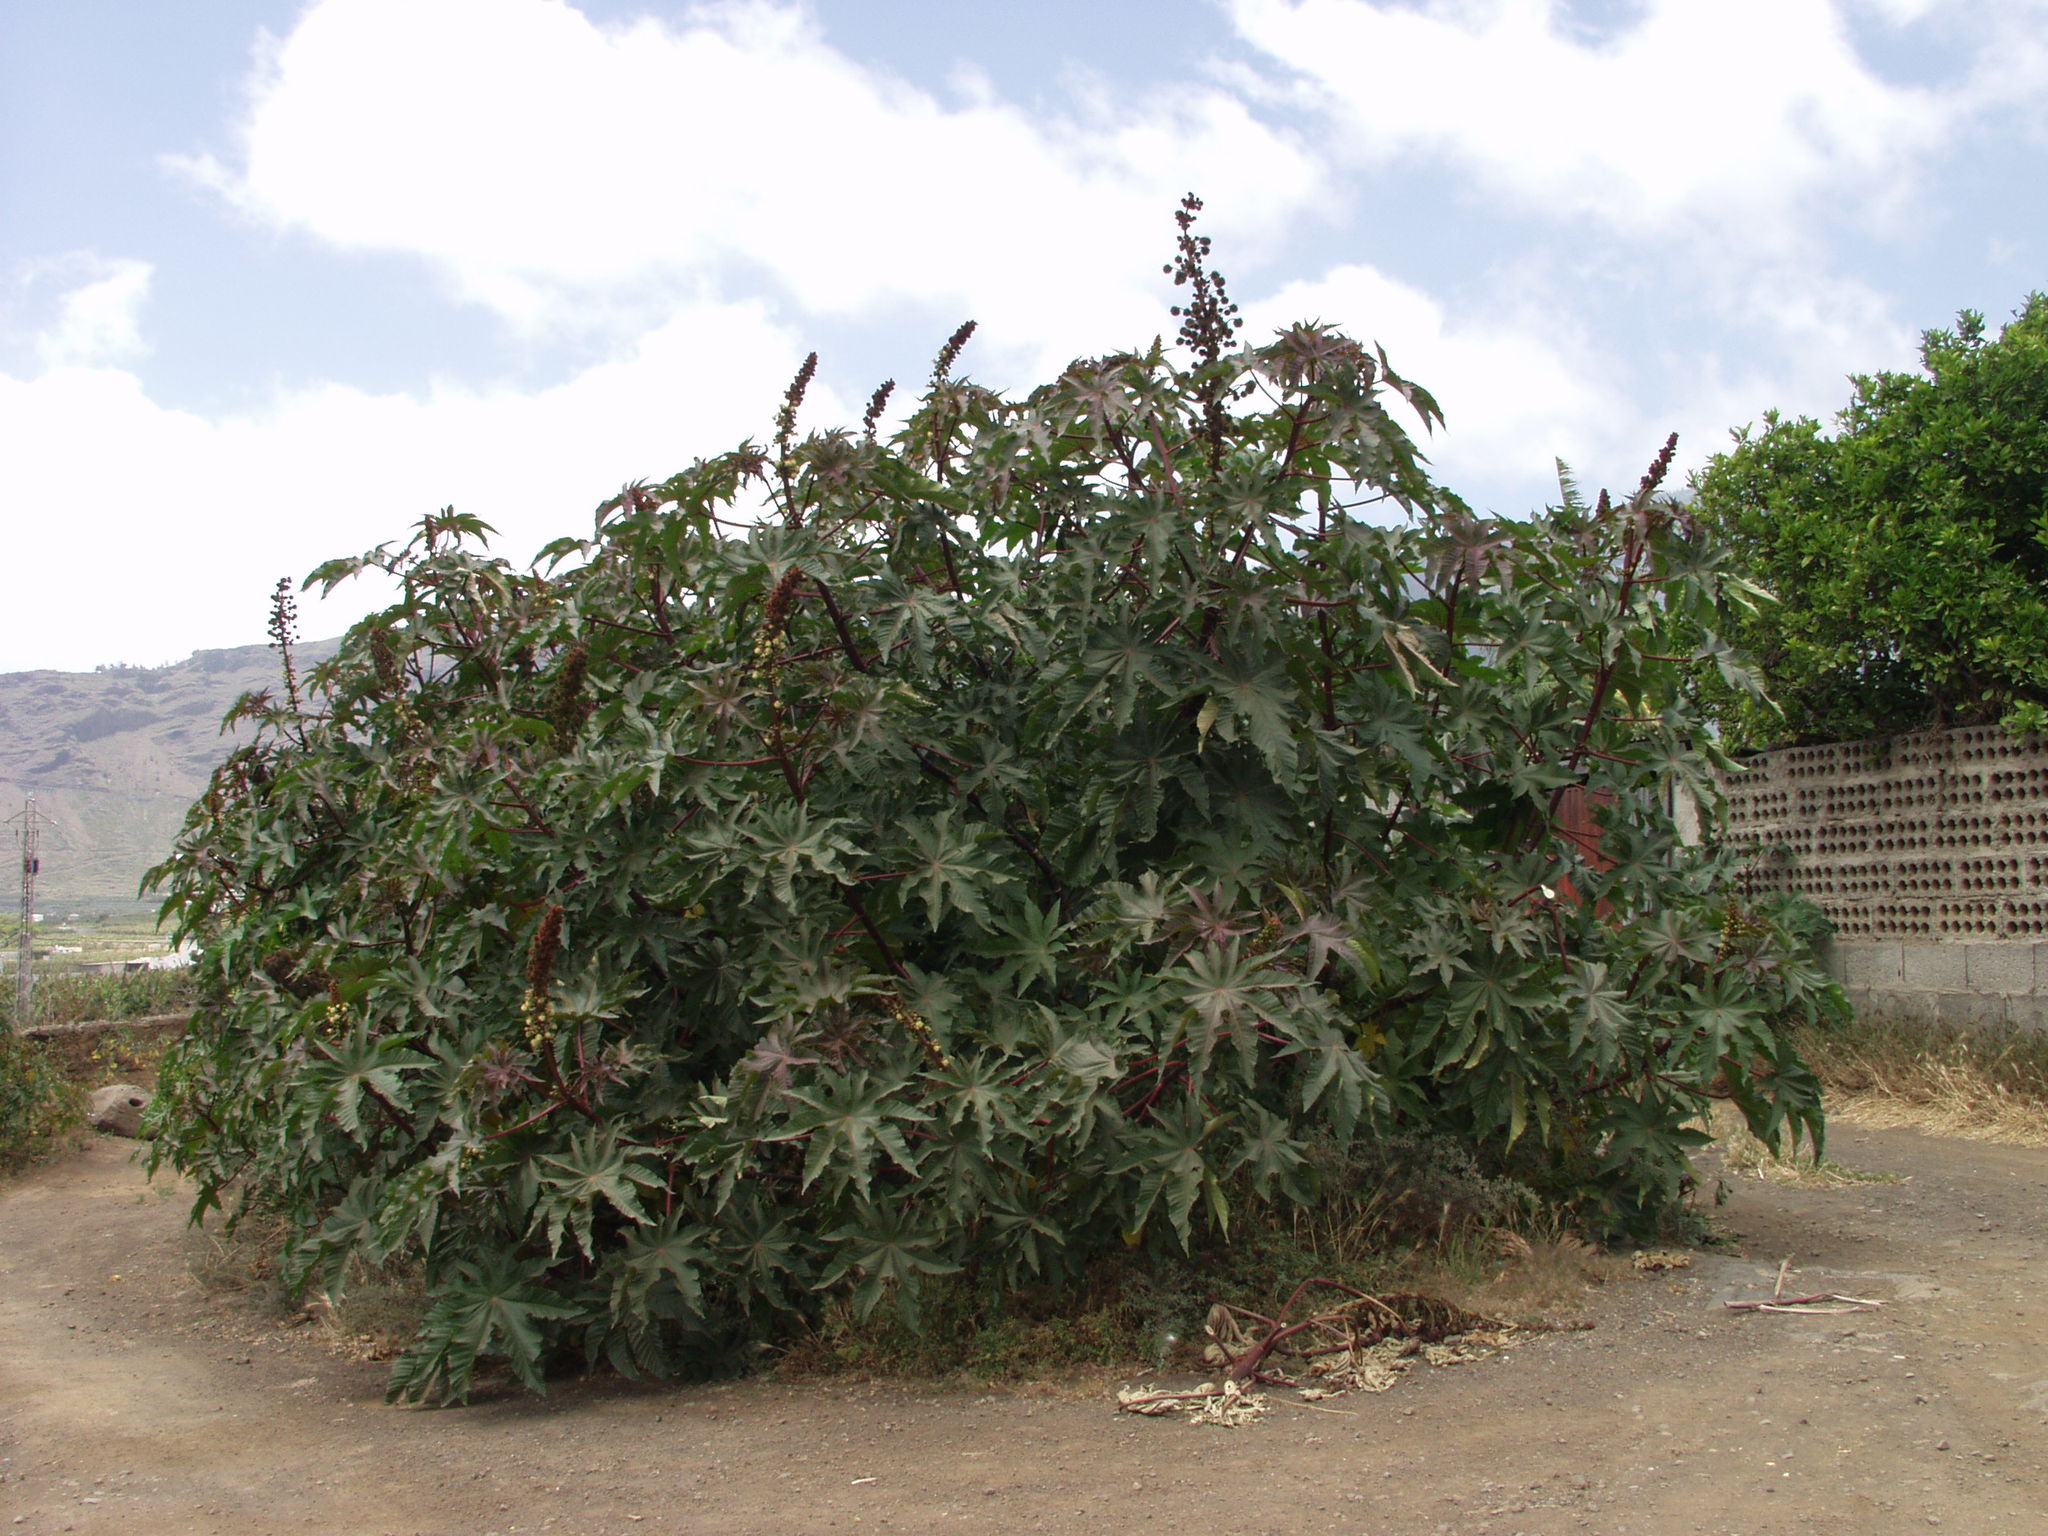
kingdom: Plantae
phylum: Tracheophyta
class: Magnoliopsida
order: Malpighiales
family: Euphorbiaceae
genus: Ricinus
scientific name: Ricinus communis
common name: Castor-oil-plant
